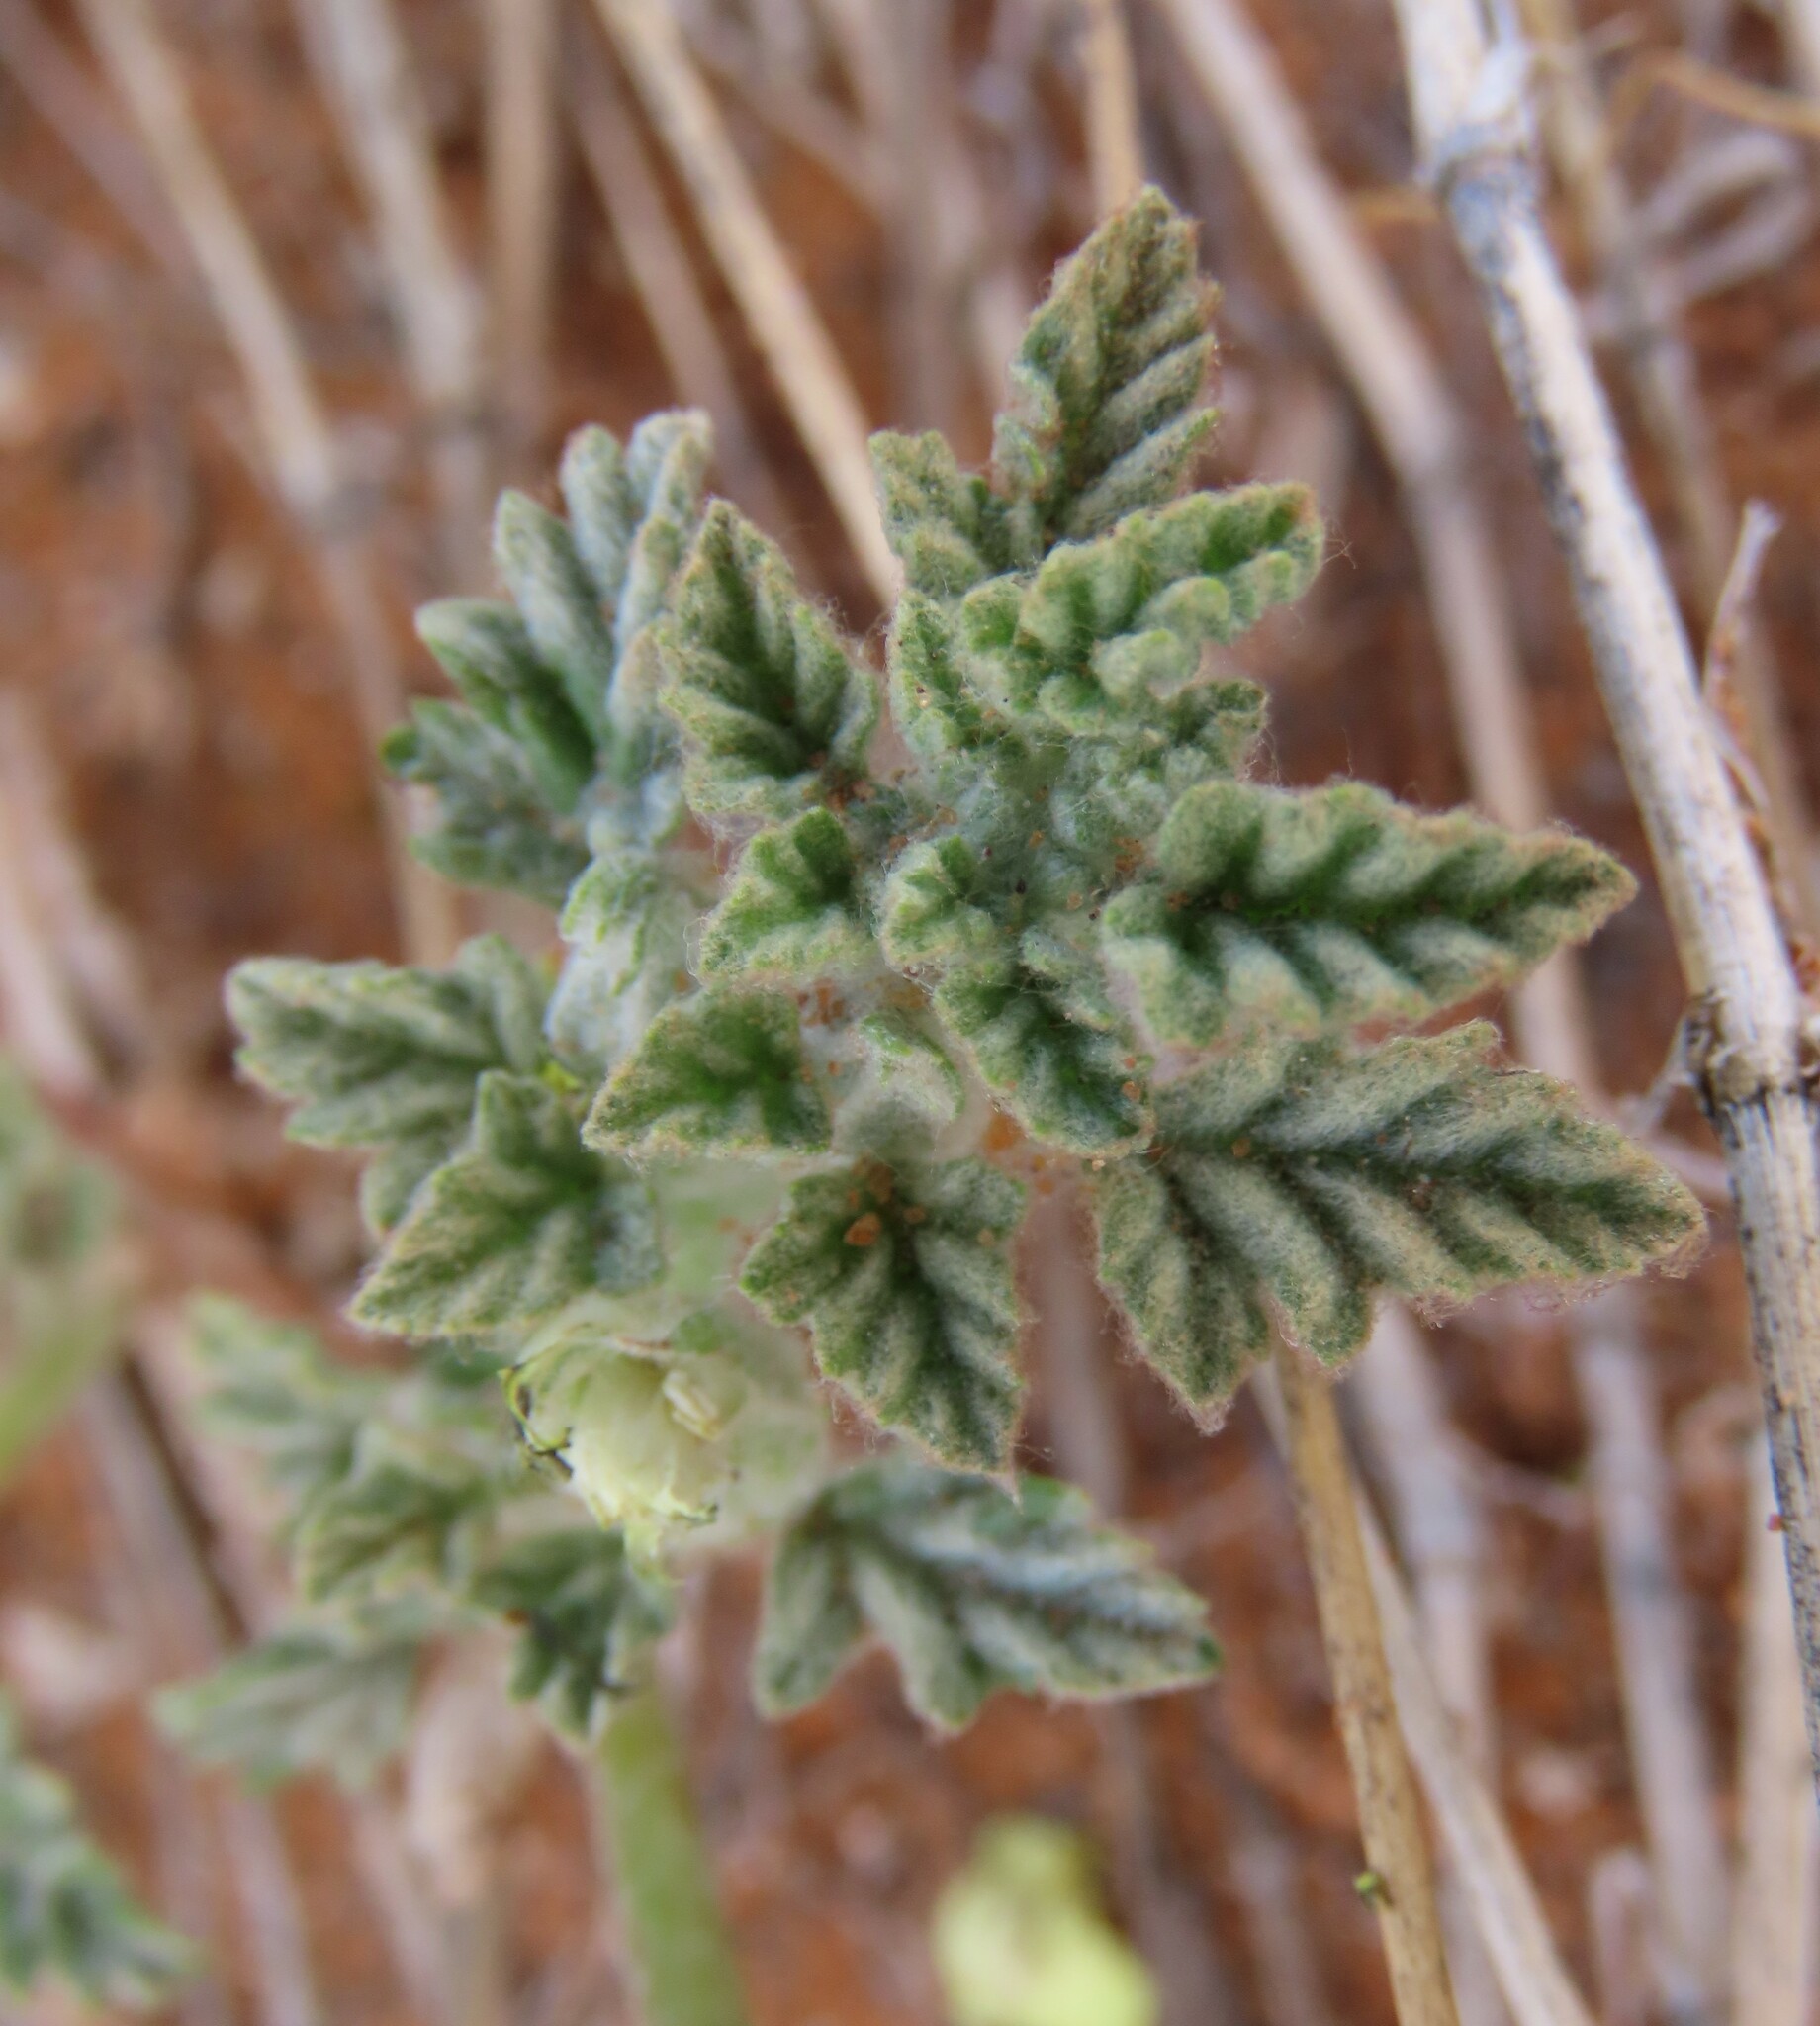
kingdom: Plantae
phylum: Tracheophyta
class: Magnoliopsida
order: Malvales
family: Neuradaceae
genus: Neuradopsis
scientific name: Neuradopsis austroafricana
